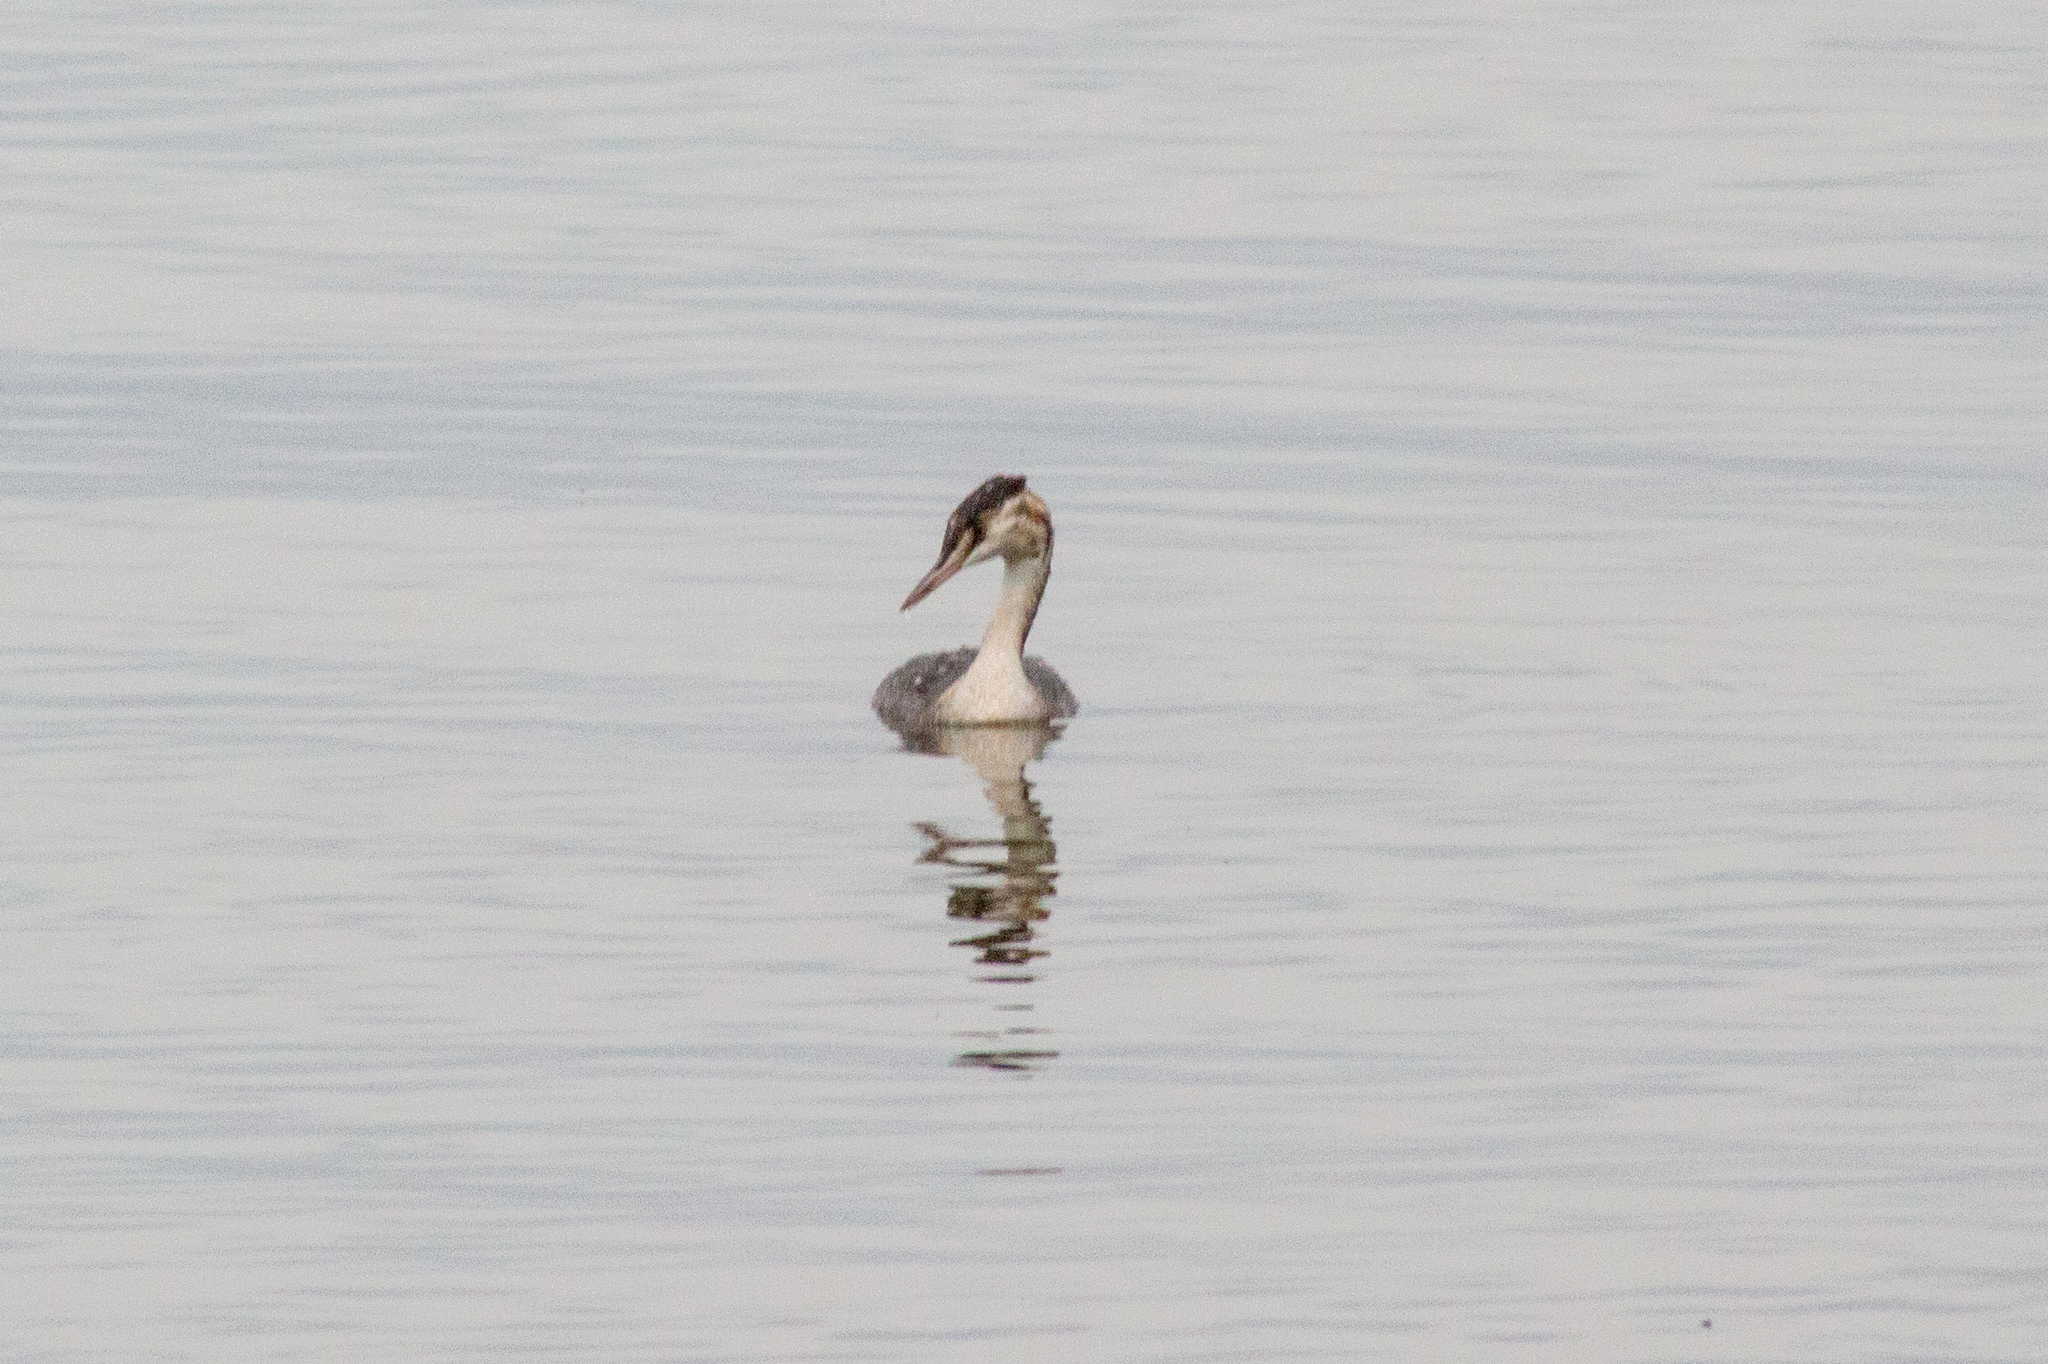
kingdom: Animalia
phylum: Chordata
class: Aves
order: Podicipediformes
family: Podicipedidae
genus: Podiceps
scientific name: Podiceps cristatus
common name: Great crested grebe
